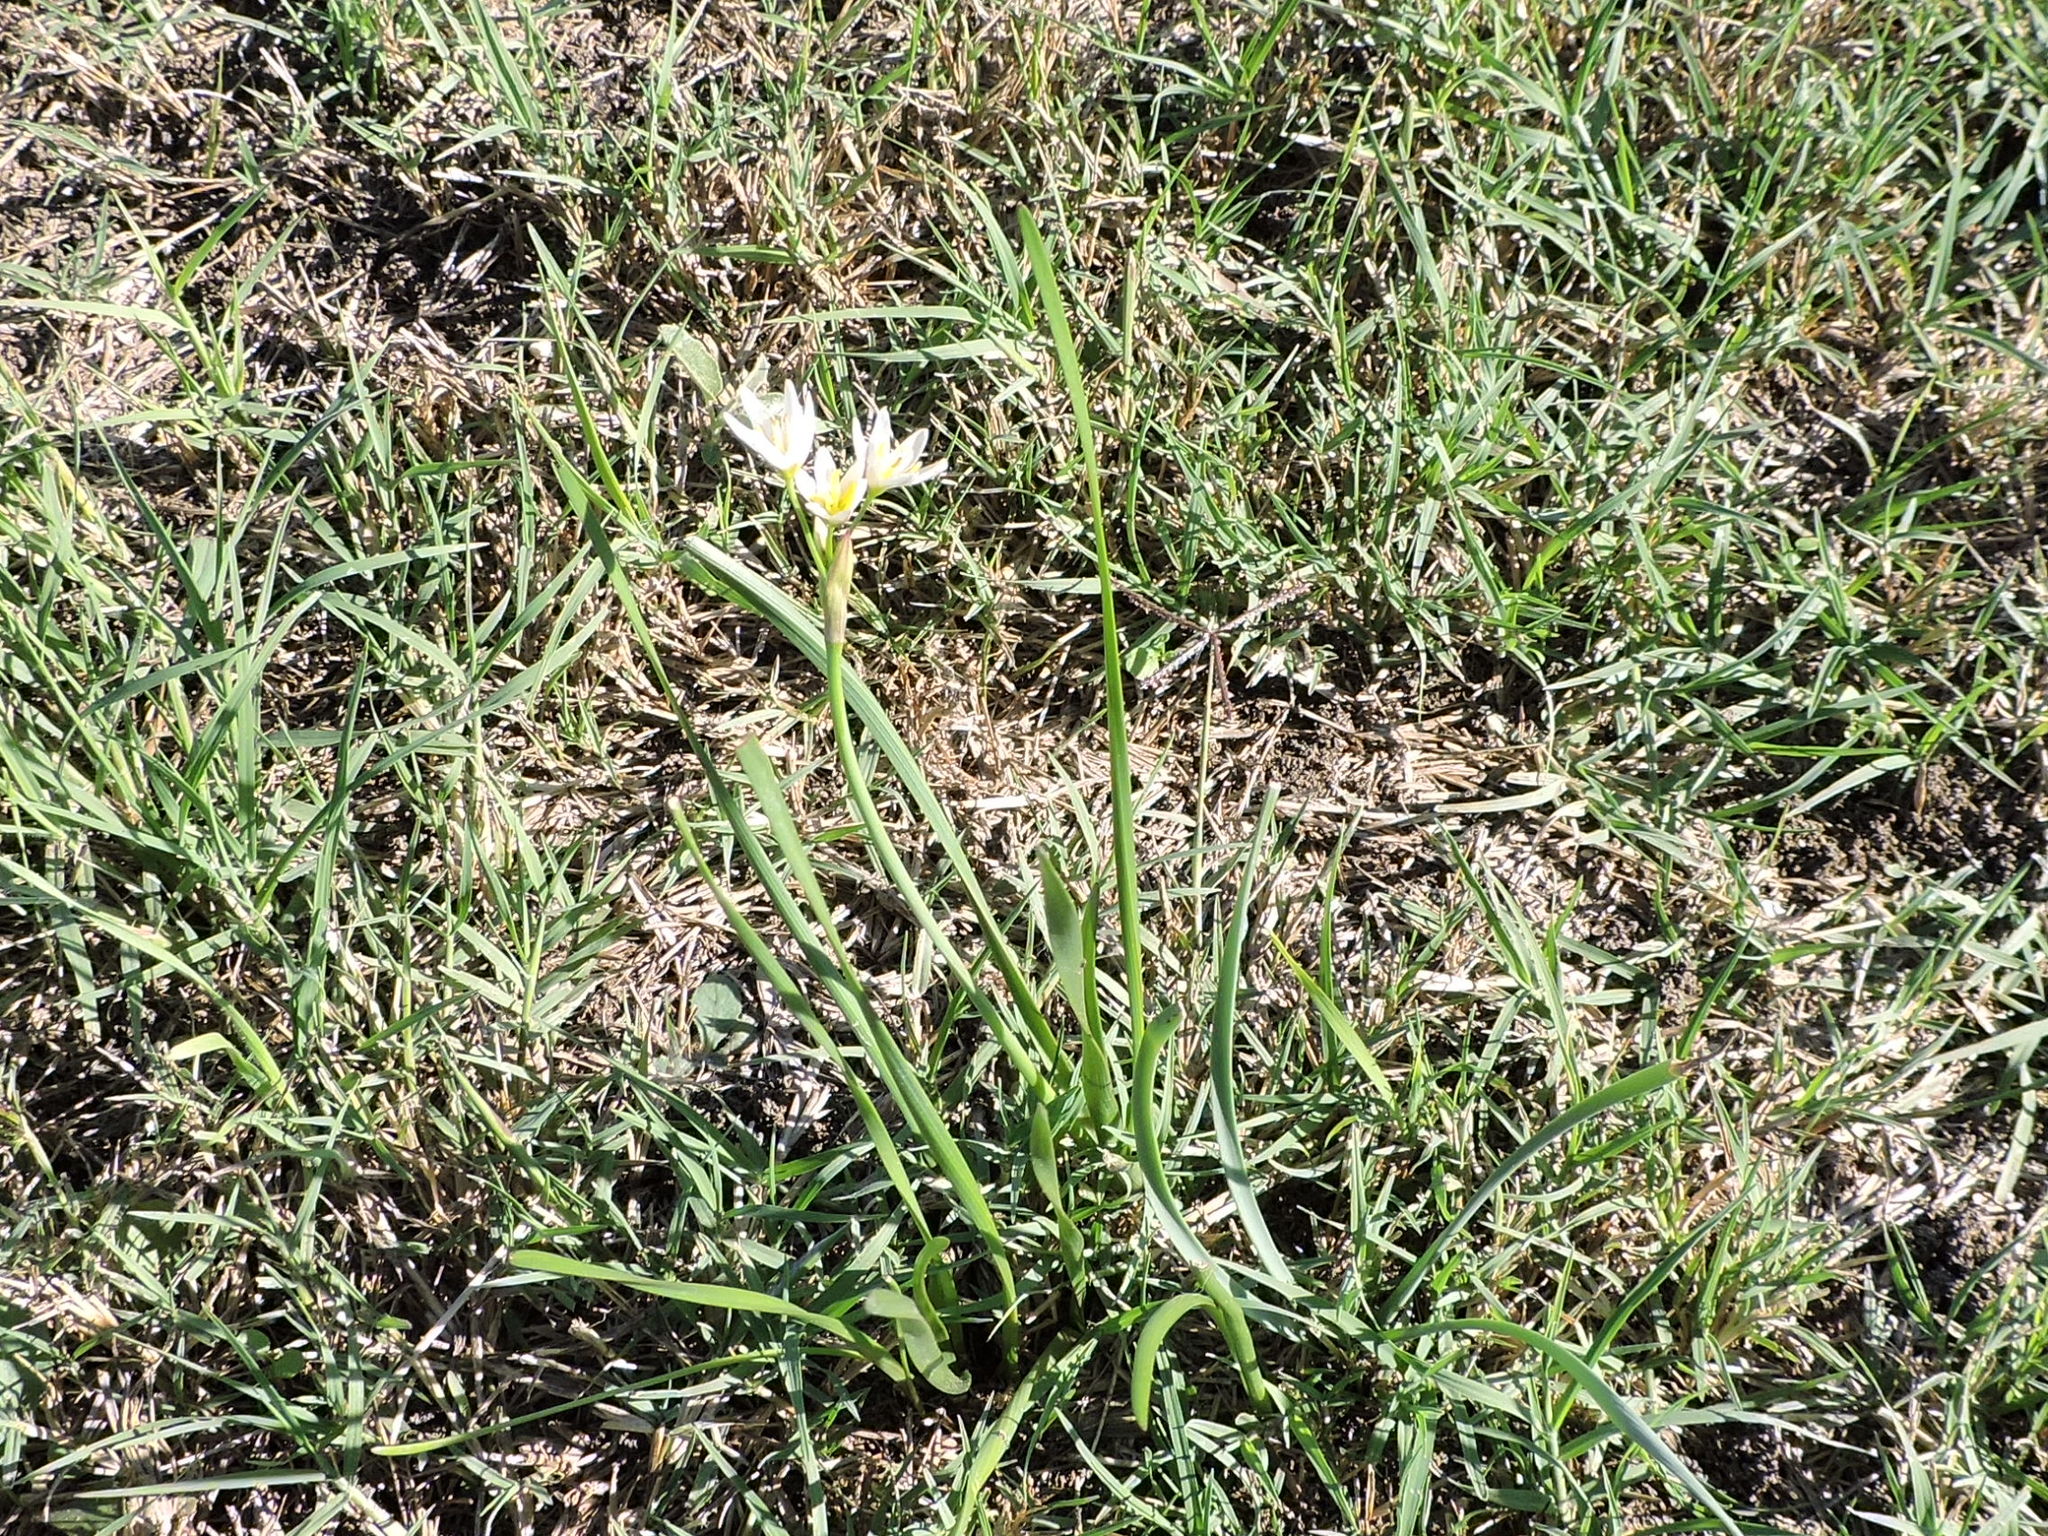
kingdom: Plantae
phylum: Tracheophyta
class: Liliopsida
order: Asparagales
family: Amaryllidaceae
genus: Nothoscordum
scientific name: Nothoscordum bivalve
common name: Crow-poison
